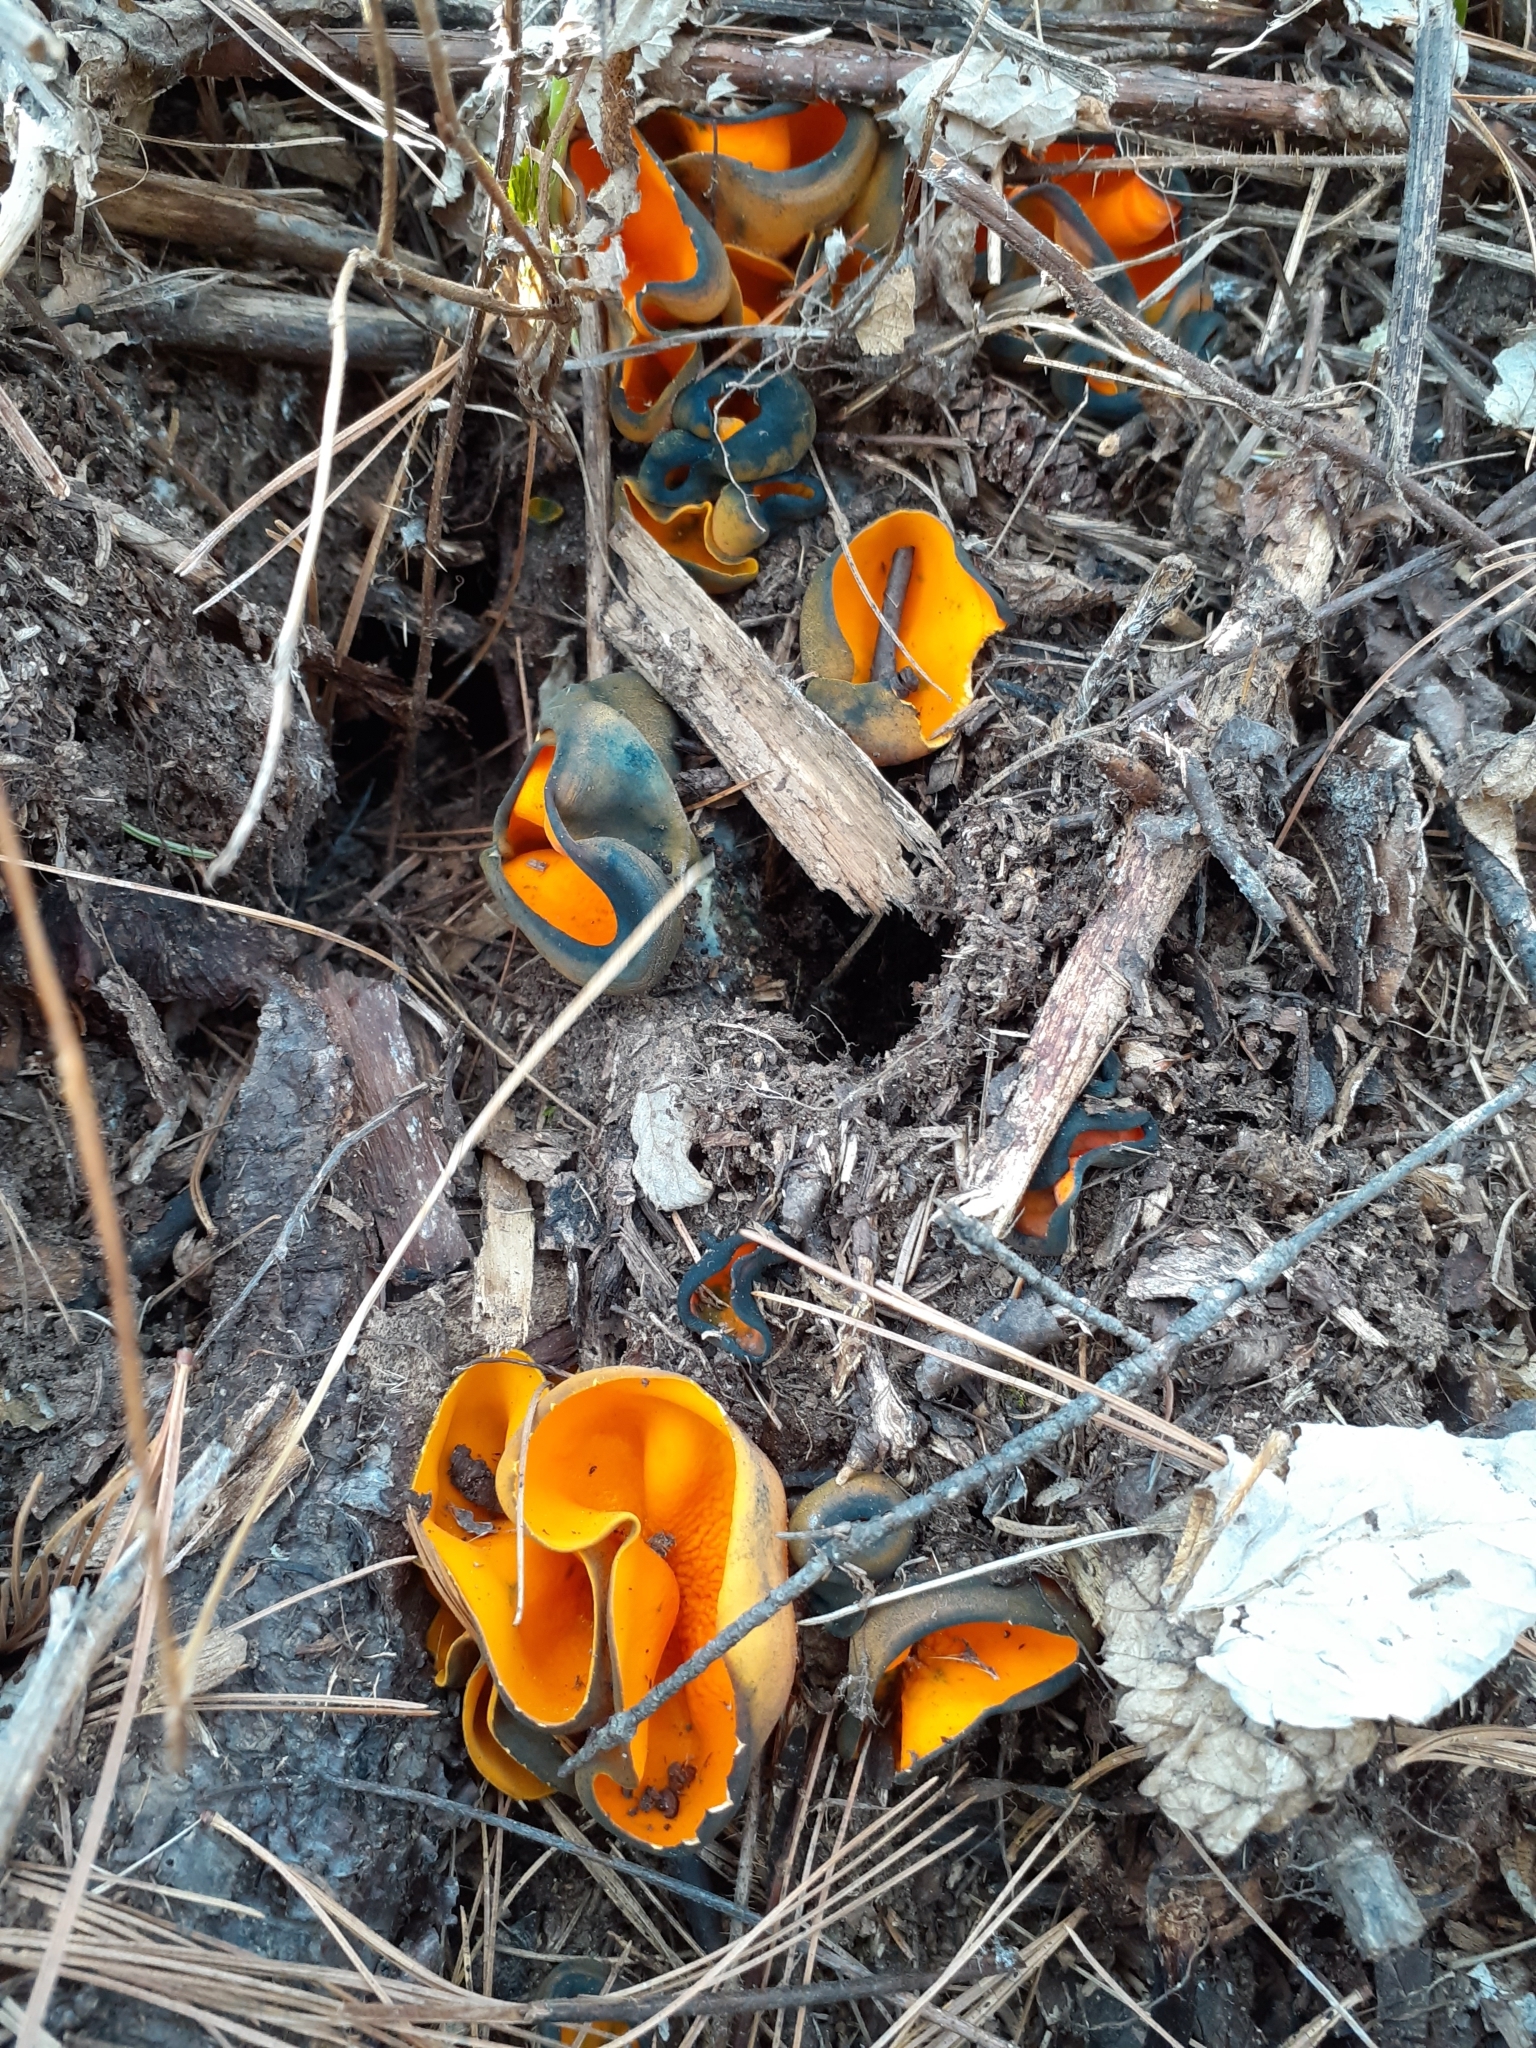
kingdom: Fungi
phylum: Ascomycota
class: Pezizomycetes
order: Pezizales
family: Caloscyphaceae
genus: Caloscypha
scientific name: Caloscypha fulgens
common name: Golden cup
